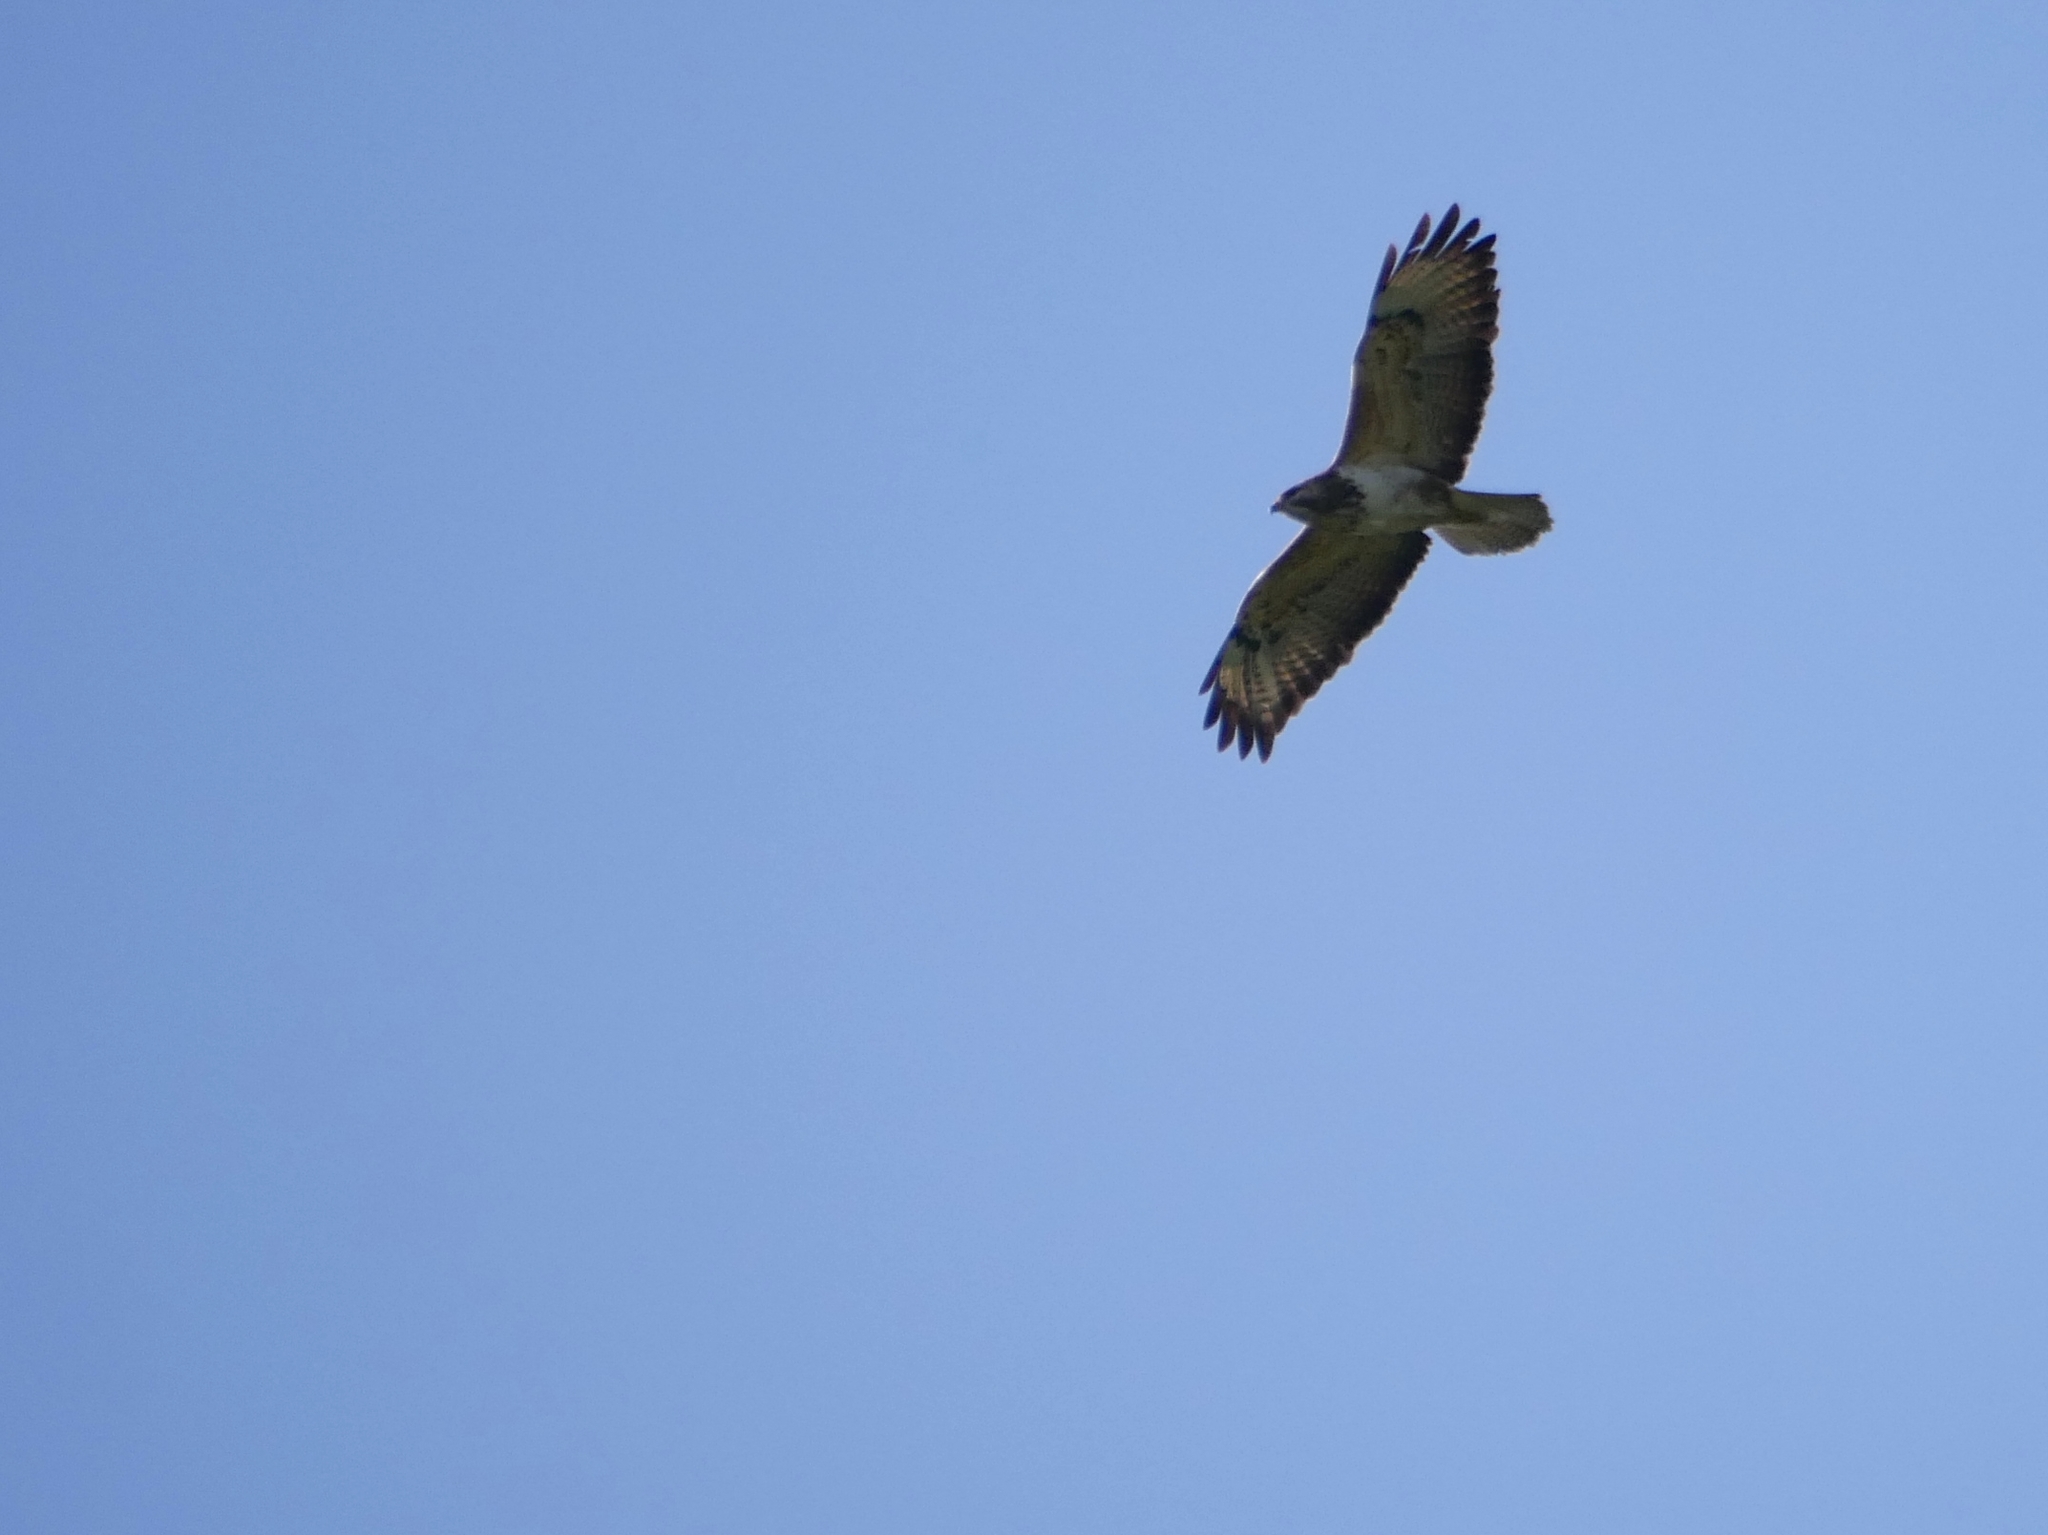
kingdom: Animalia
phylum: Chordata
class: Aves
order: Accipitriformes
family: Accipitridae
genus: Buteo
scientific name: Buteo buteo
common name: Common buzzard
